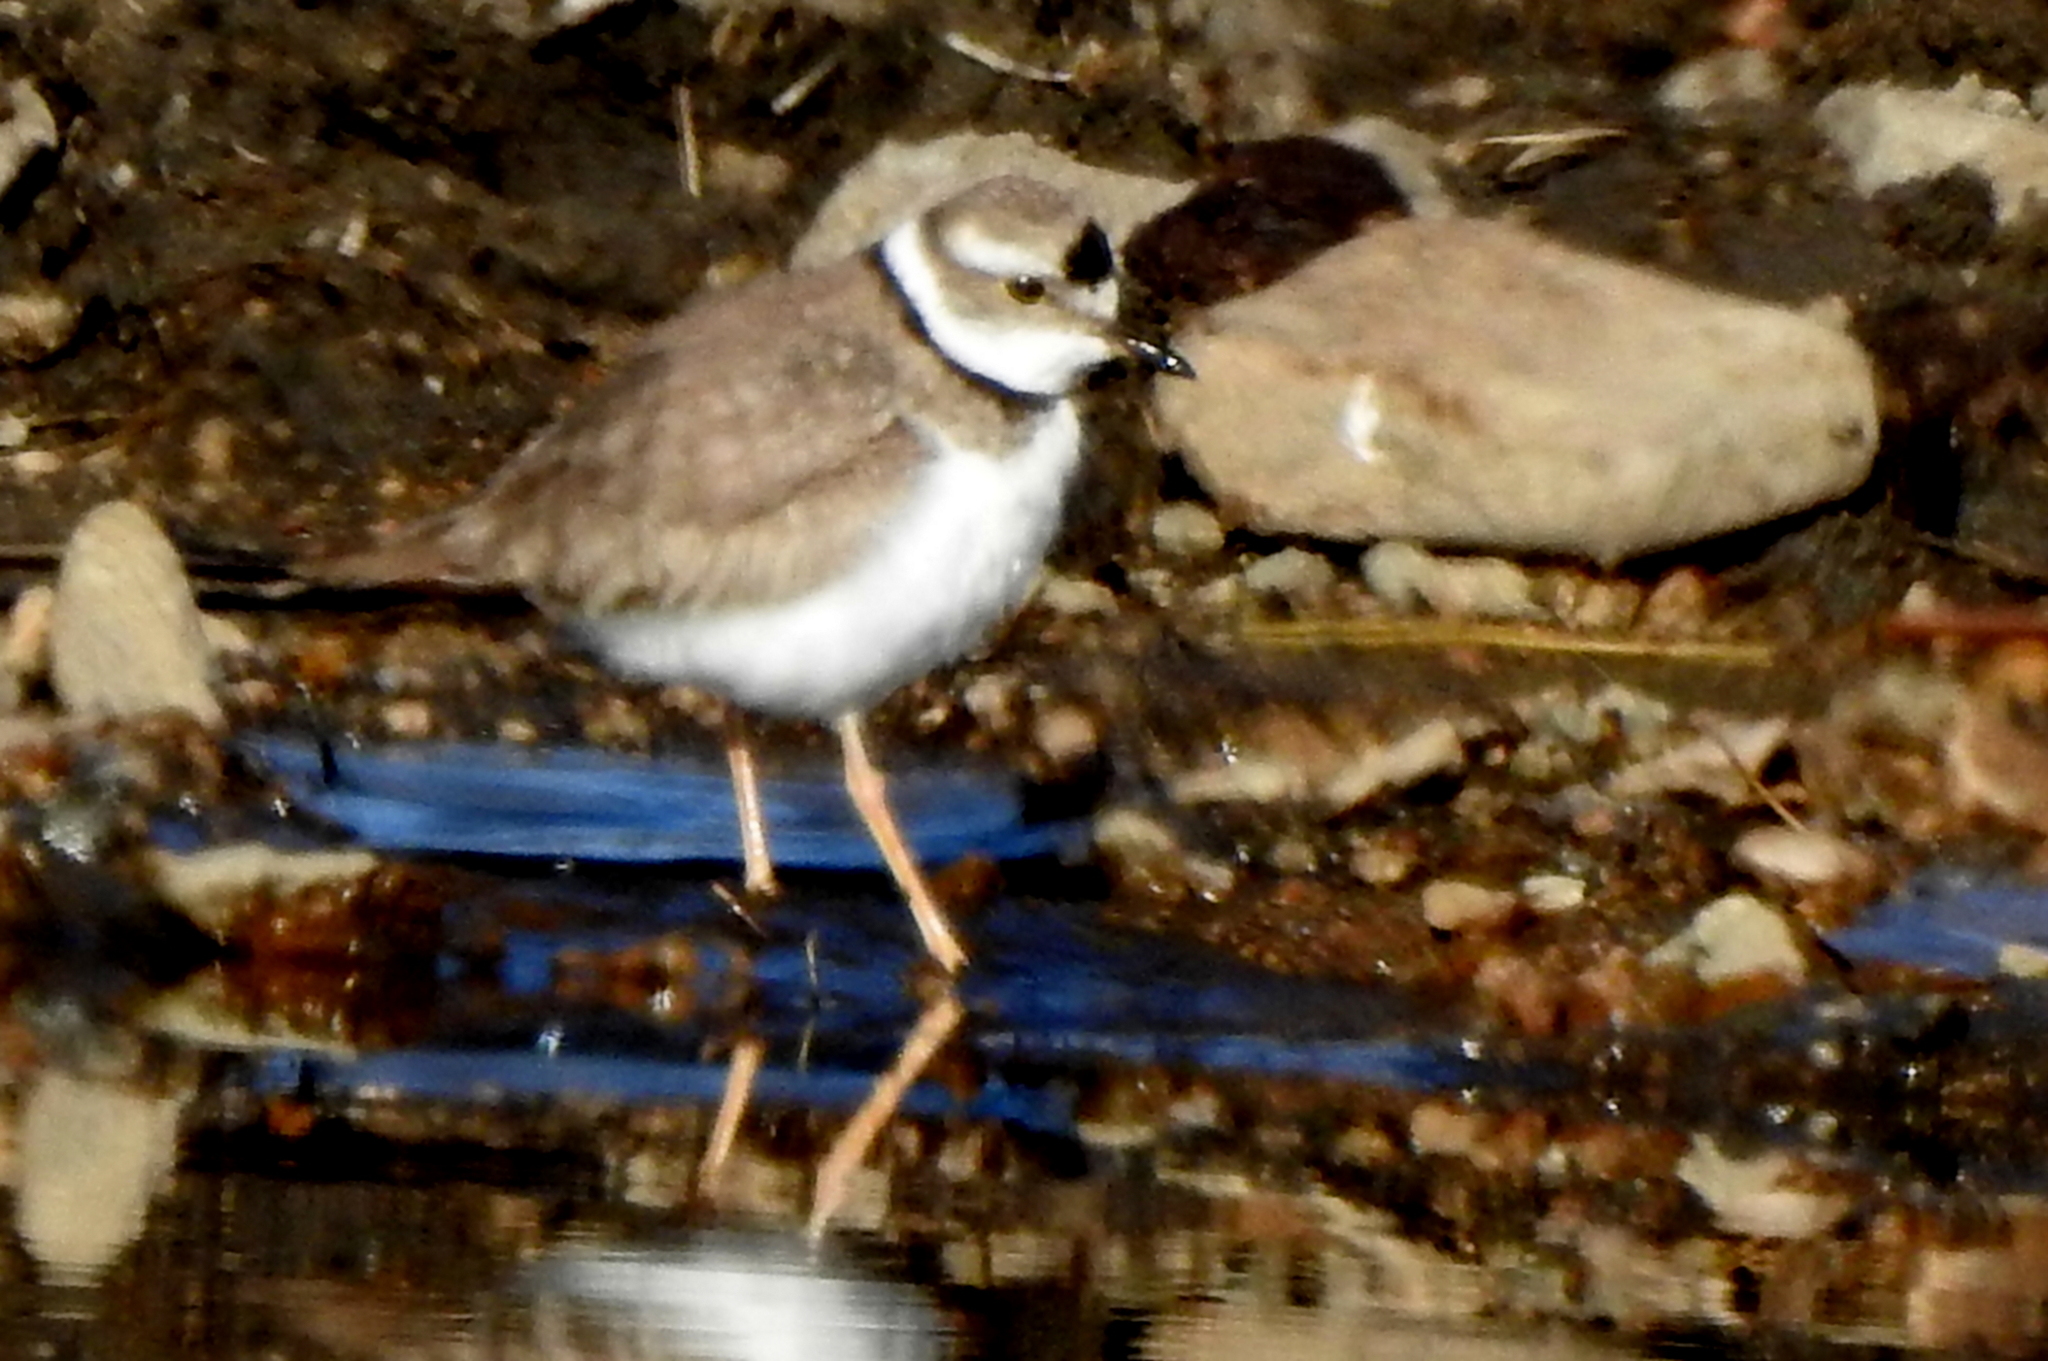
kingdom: Animalia
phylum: Chordata
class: Aves
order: Charadriiformes
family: Charadriidae
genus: Charadrius
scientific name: Charadrius placidus
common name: Long-billed plover
